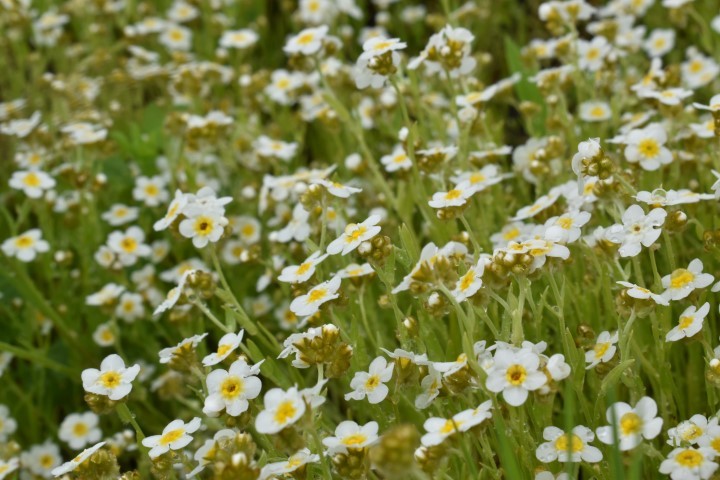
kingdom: Plantae
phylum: Tracheophyta
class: Magnoliopsida
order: Boraginales
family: Boraginaceae
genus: Plagiobothrys
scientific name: Plagiobothrys figuratus
